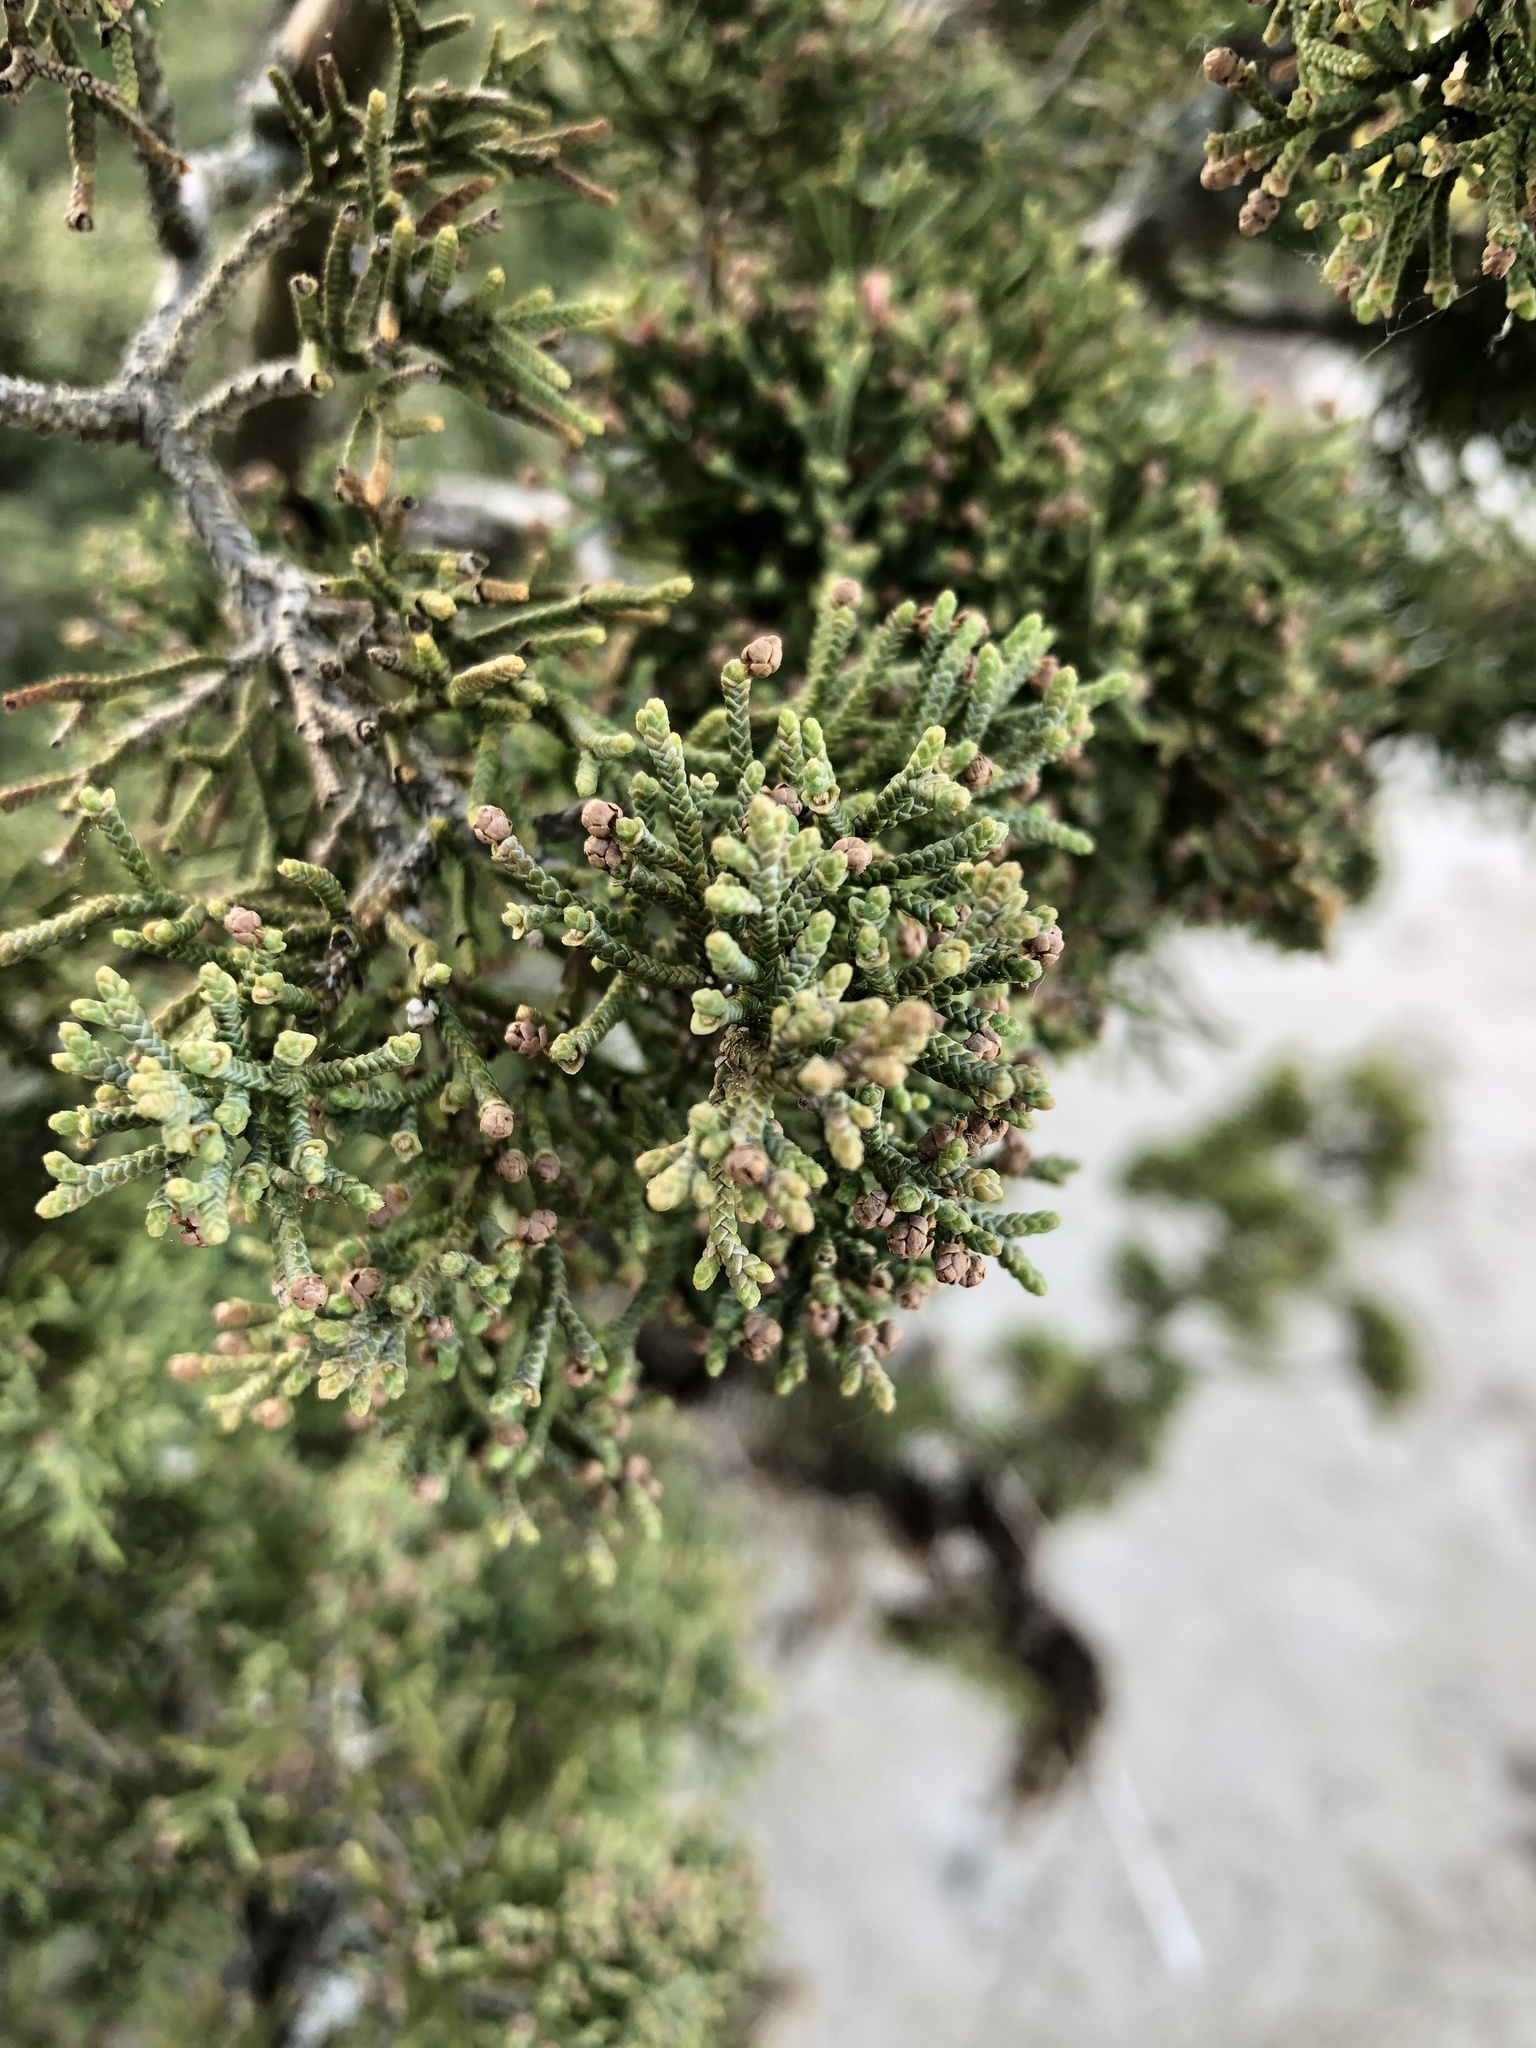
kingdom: Plantae
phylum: Tracheophyta
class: Pinopsida
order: Pinales
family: Cupressaceae
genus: Juniperus
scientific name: Juniperus virginiana
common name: Red juniper
